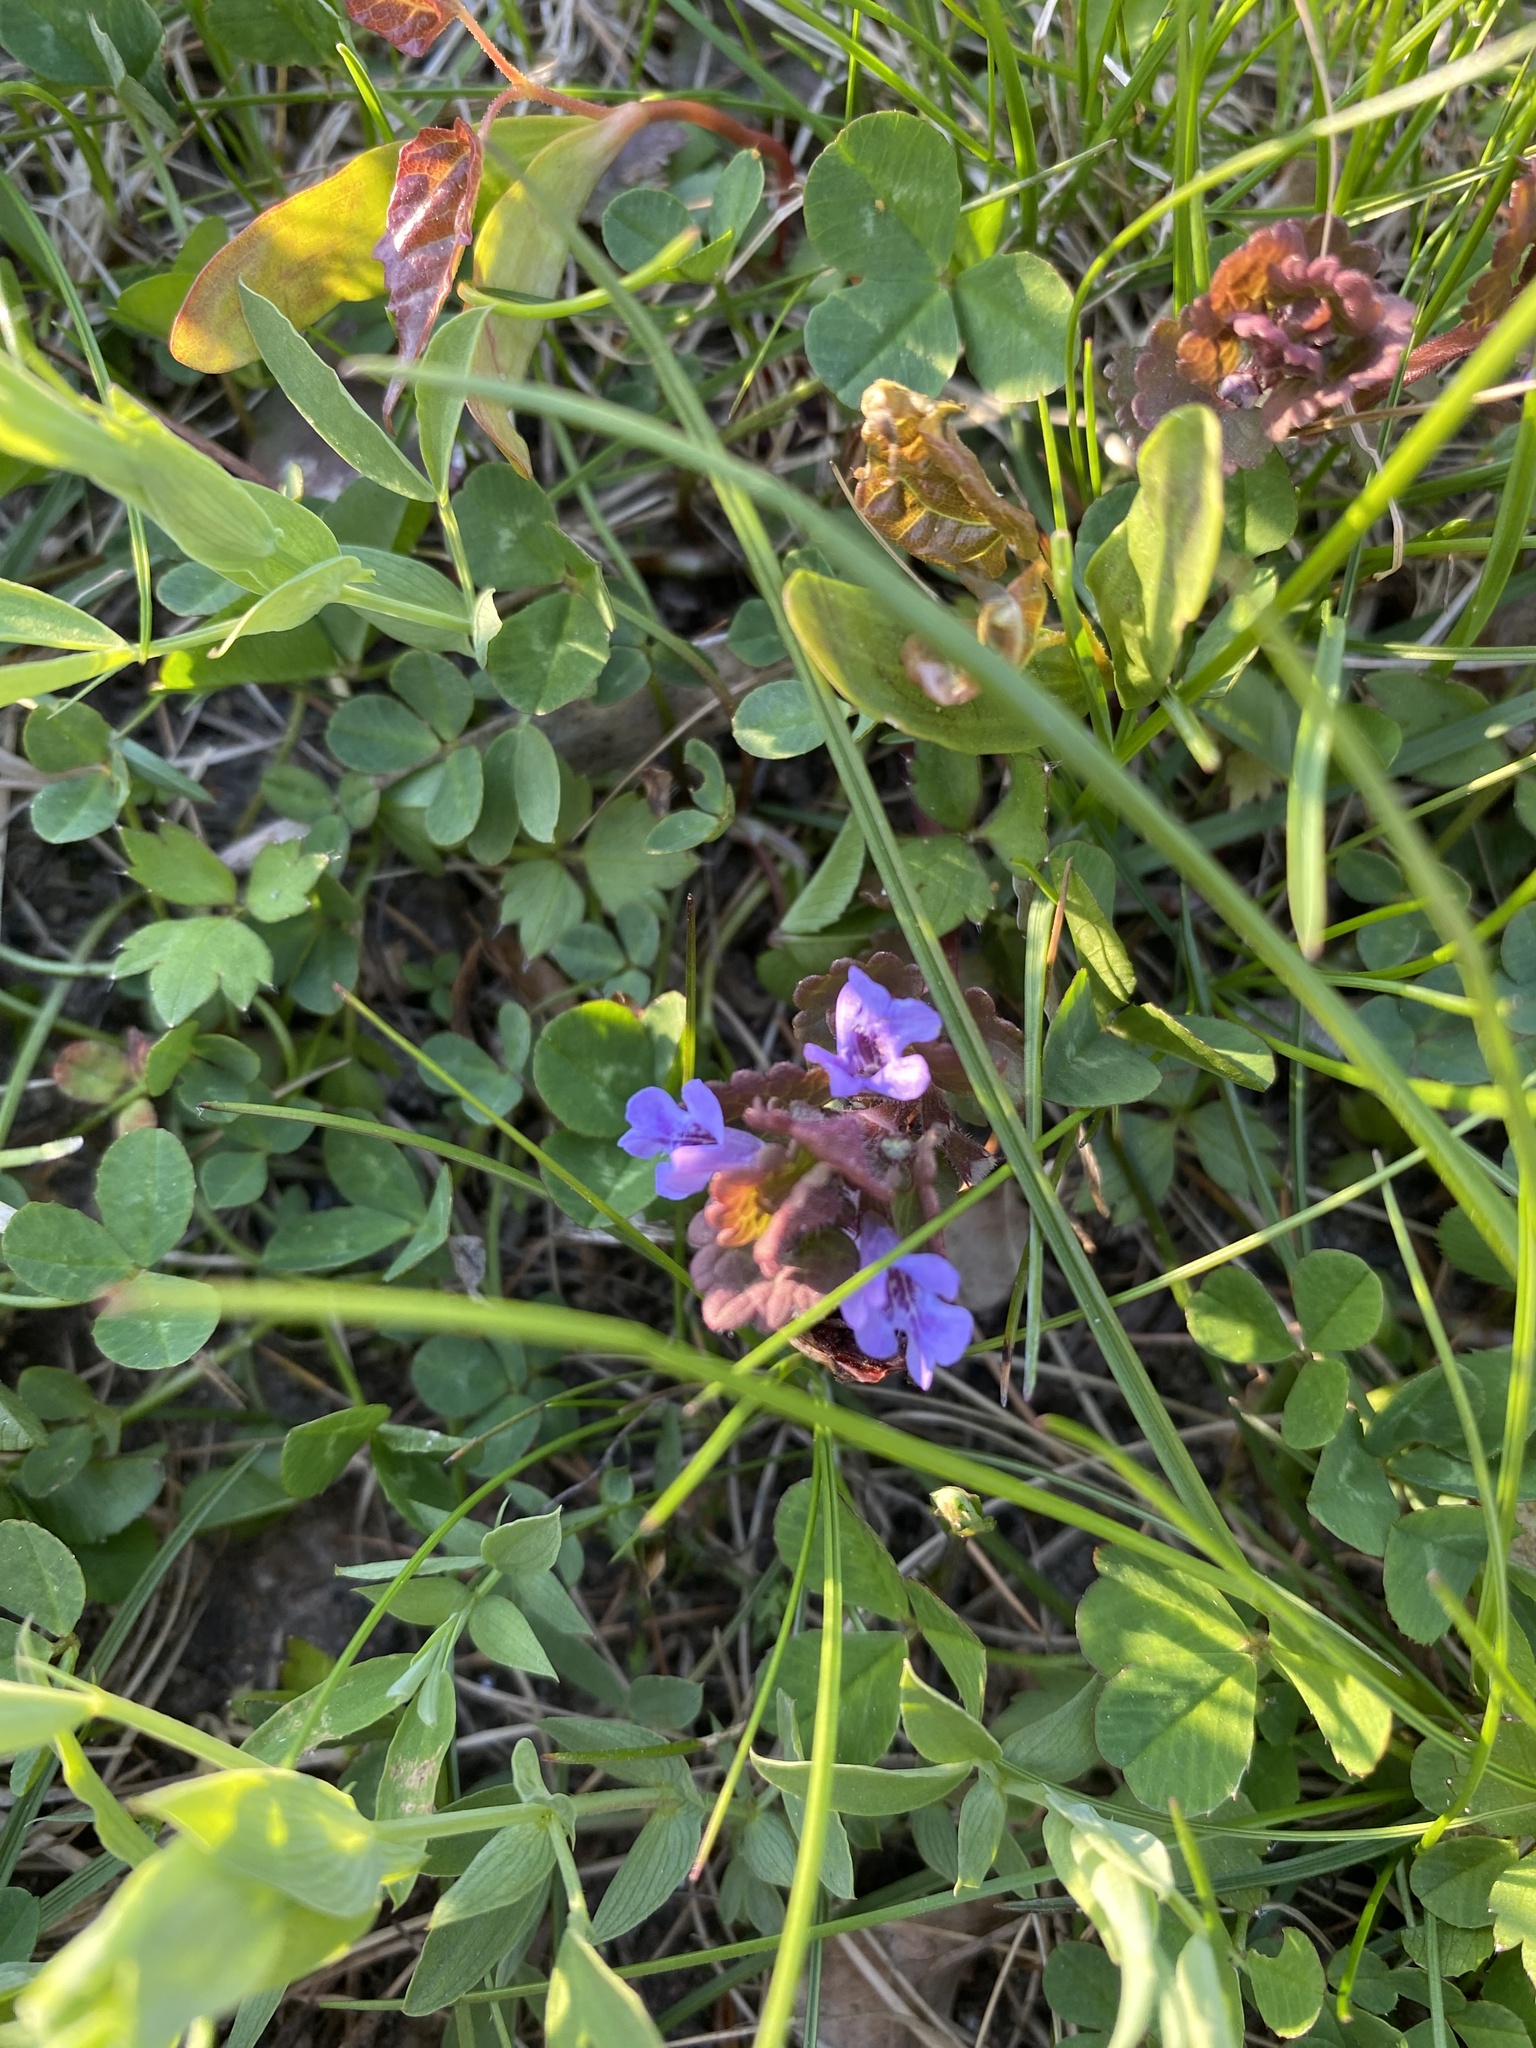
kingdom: Plantae
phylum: Tracheophyta
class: Magnoliopsida
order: Lamiales
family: Lamiaceae
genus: Glechoma
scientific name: Glechoma hederacea
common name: Ground ivy
